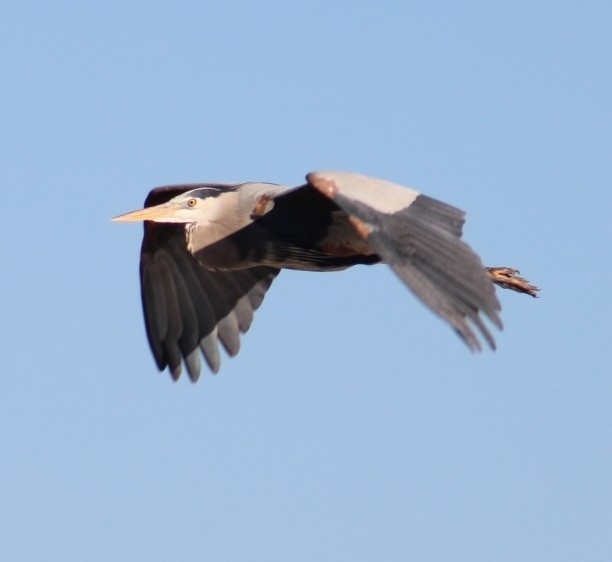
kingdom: Animalia
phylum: Chordata
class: Aves
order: Pelecaniformes
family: Ardeidae
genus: Ardea
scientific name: Ardea herodias
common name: Great blue heron
